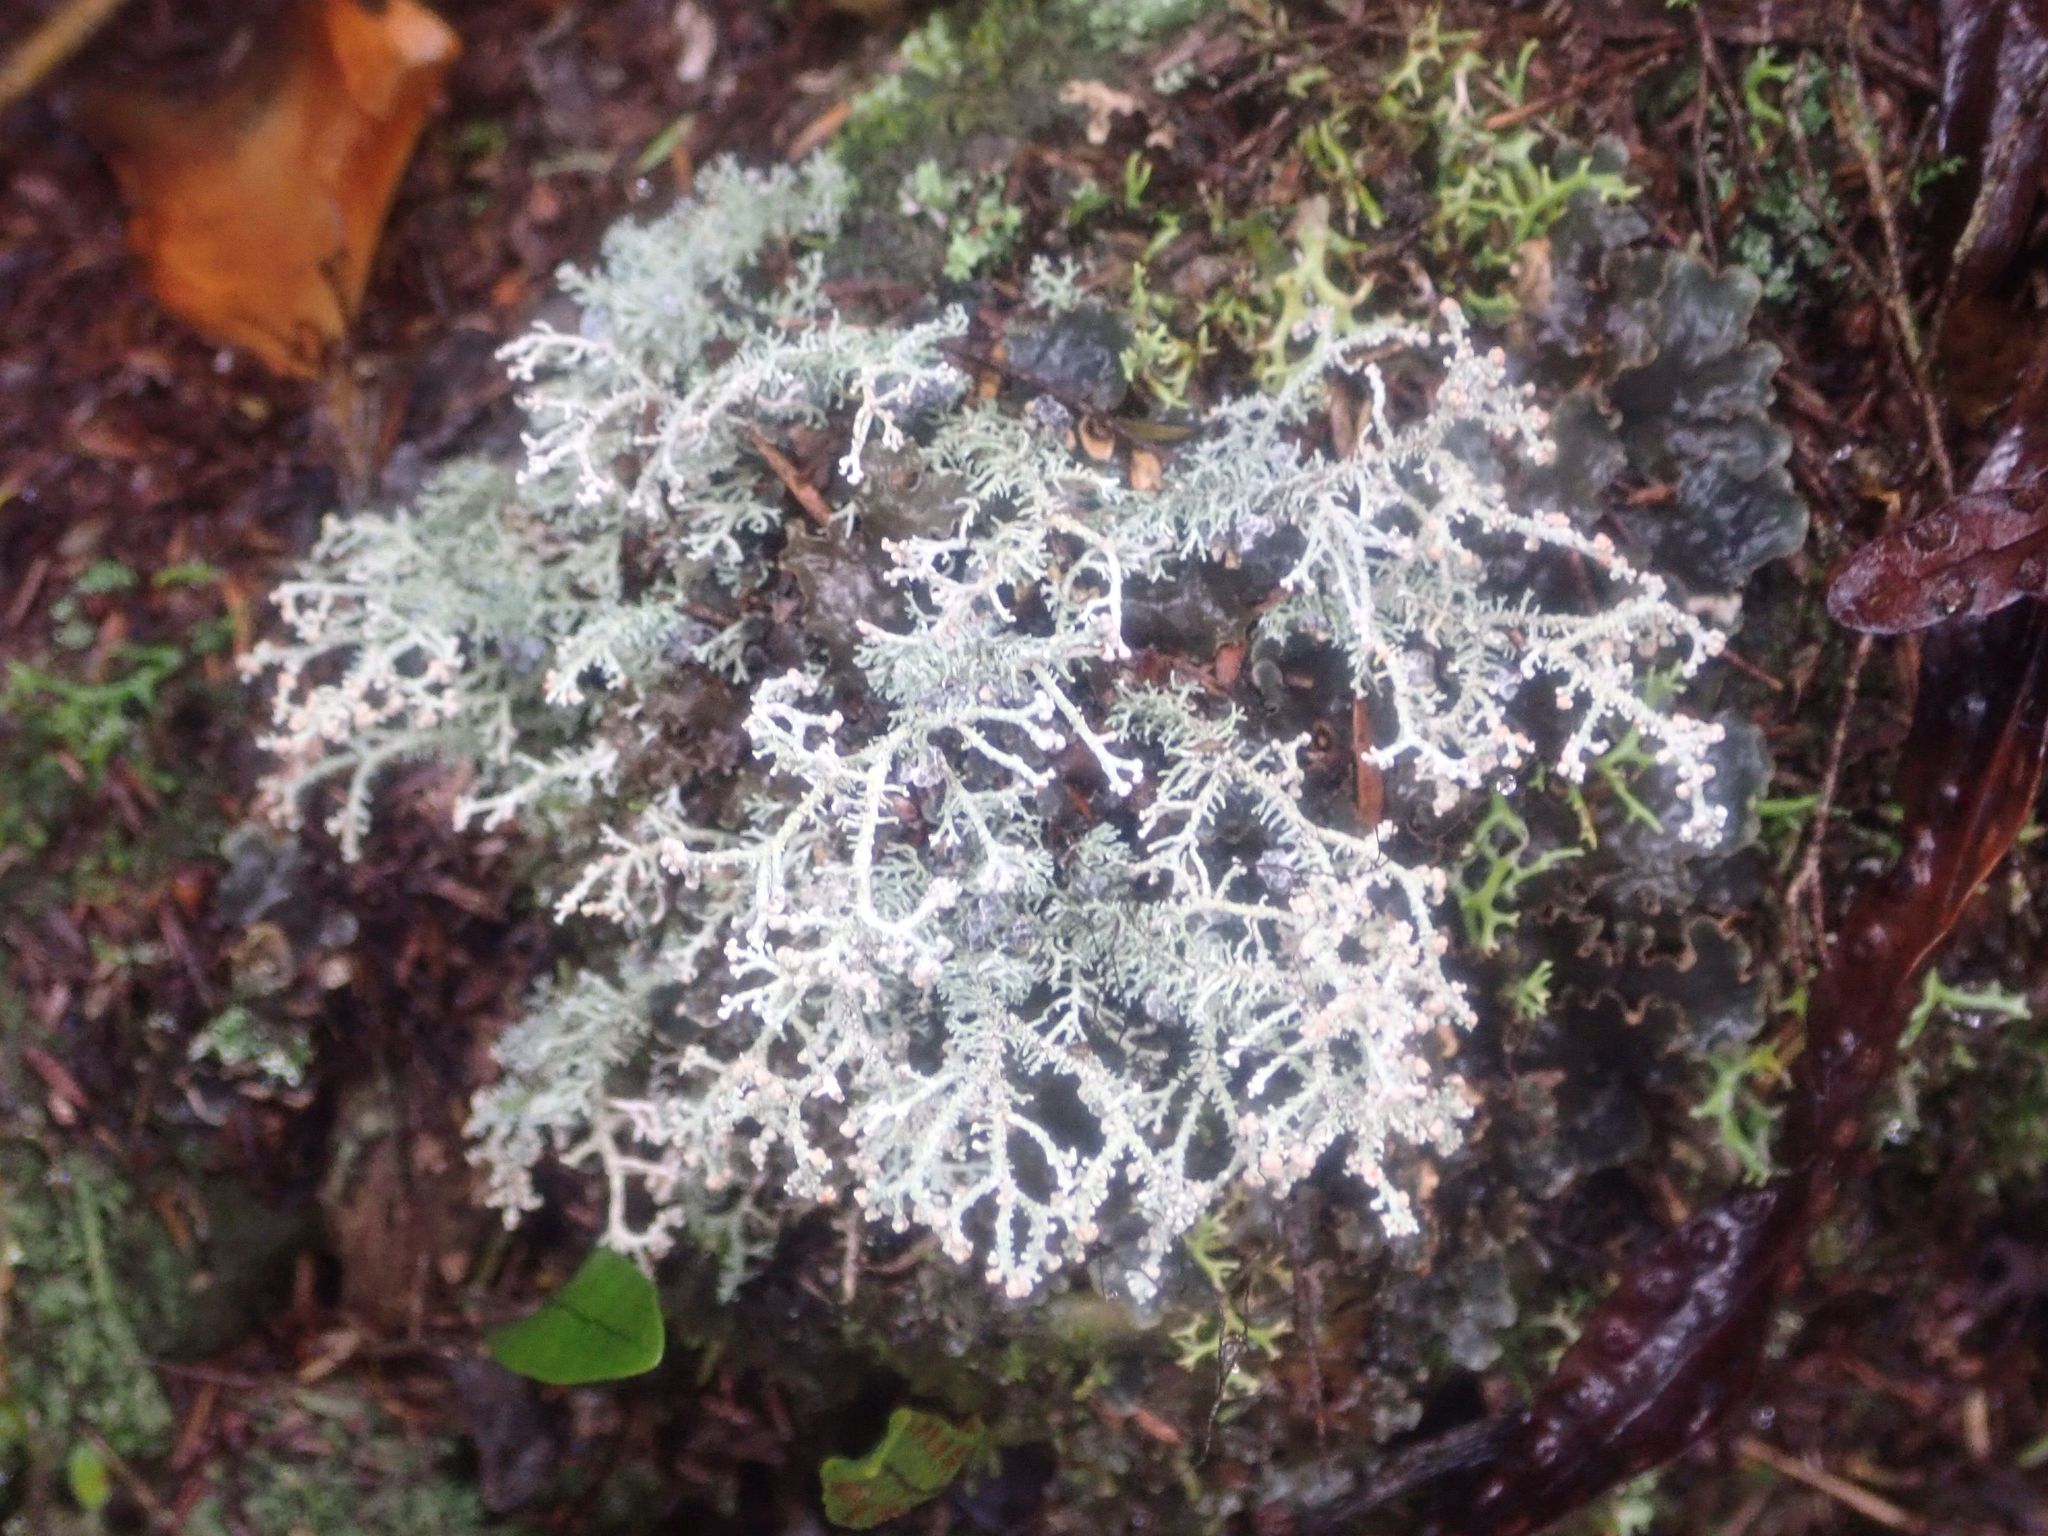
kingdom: Fungi
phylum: Ascomycota
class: Lecanoromycetes
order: Lecanorales
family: Stereocaulaceae
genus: Stereocaulon
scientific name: Stereocaulon ramulosum
